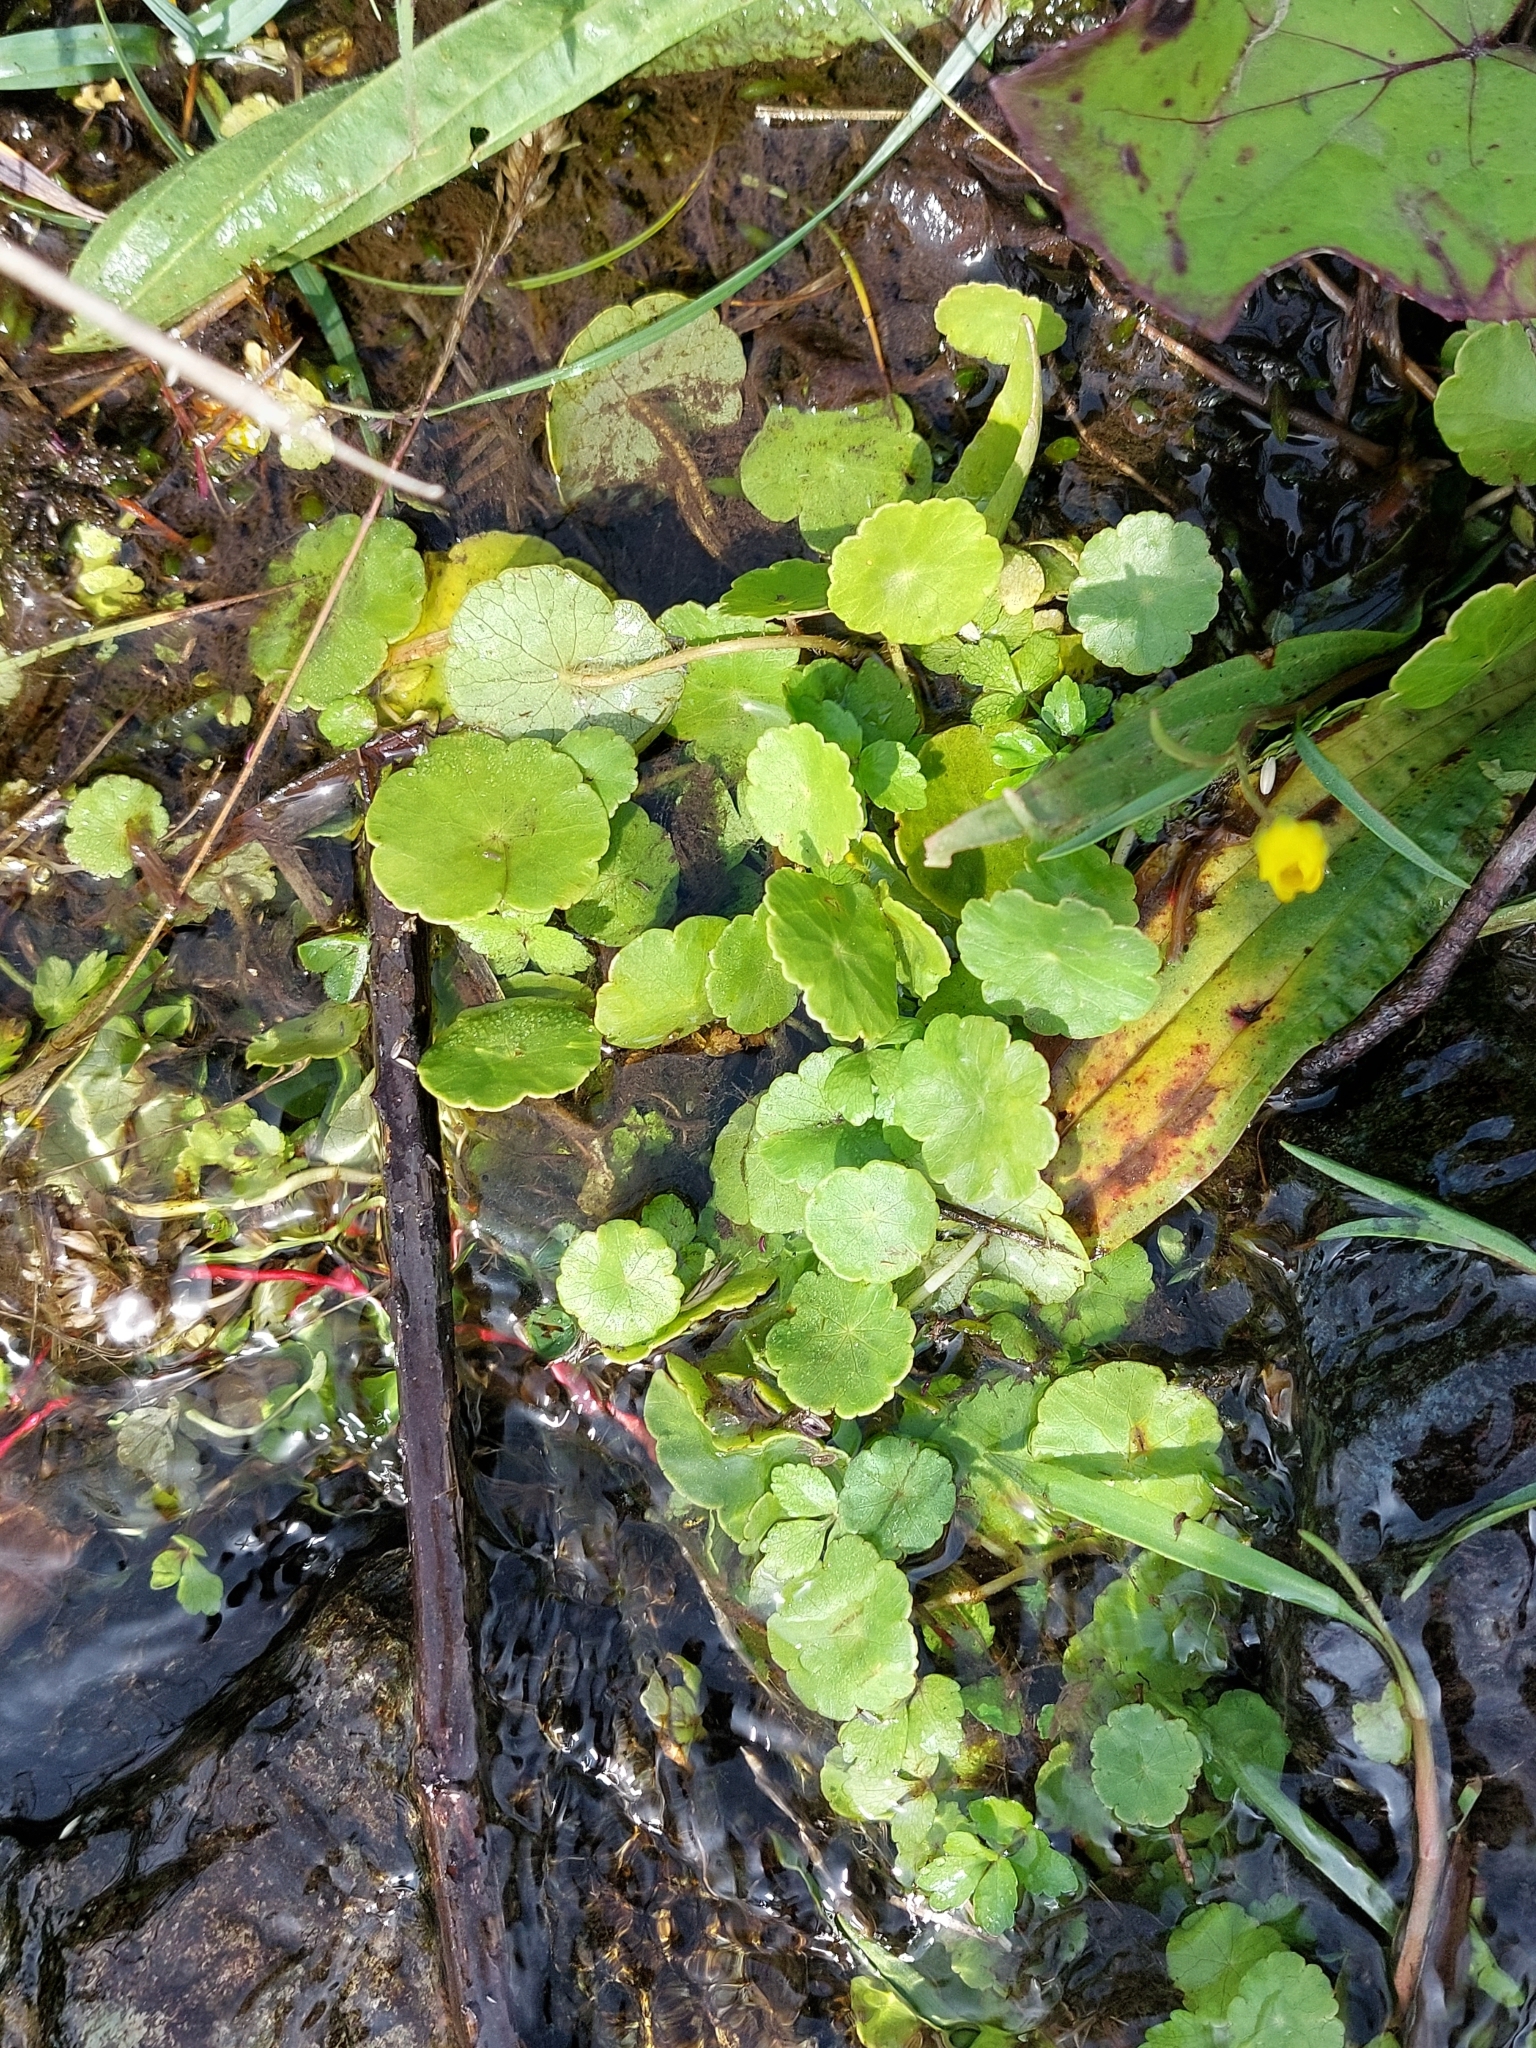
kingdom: Plantae
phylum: Tracheophyta
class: Magnoliopsida
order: Apiales
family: Araliaceae
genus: Hydrocotyle
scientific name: Hydrocotyle vulgaris
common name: Marsh pennywort
